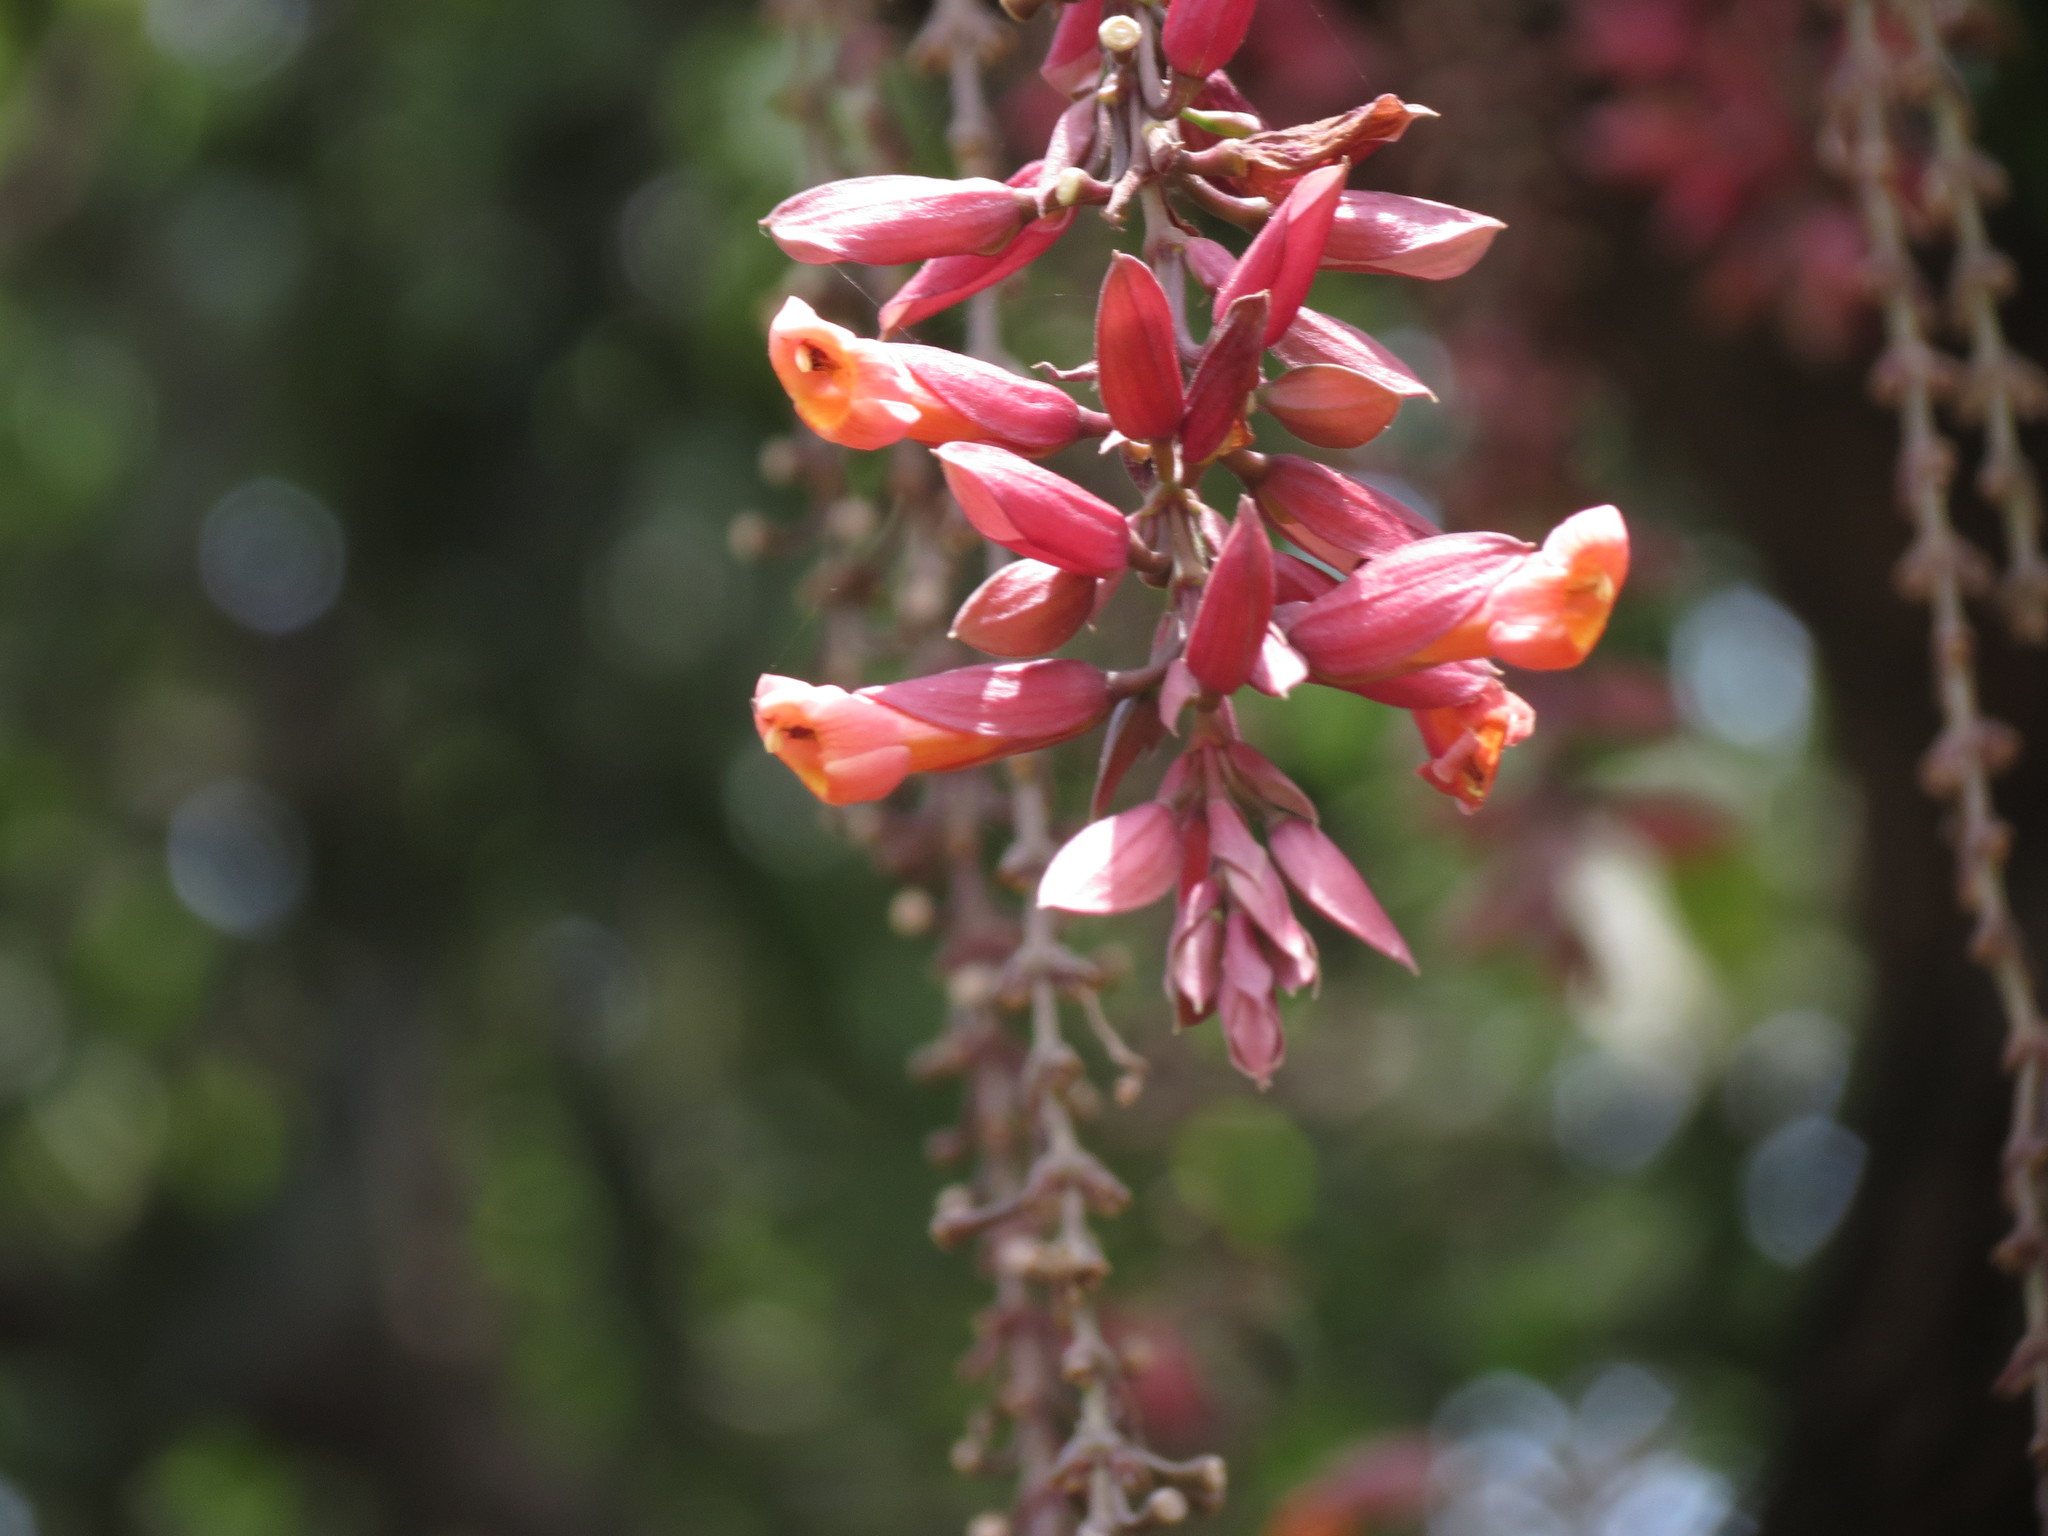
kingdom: Plantae
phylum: Tracheophyta
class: Magnoliopsida
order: Lamiales
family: Acanthaceae
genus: Thunbergia
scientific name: Thunbergia coccinea
